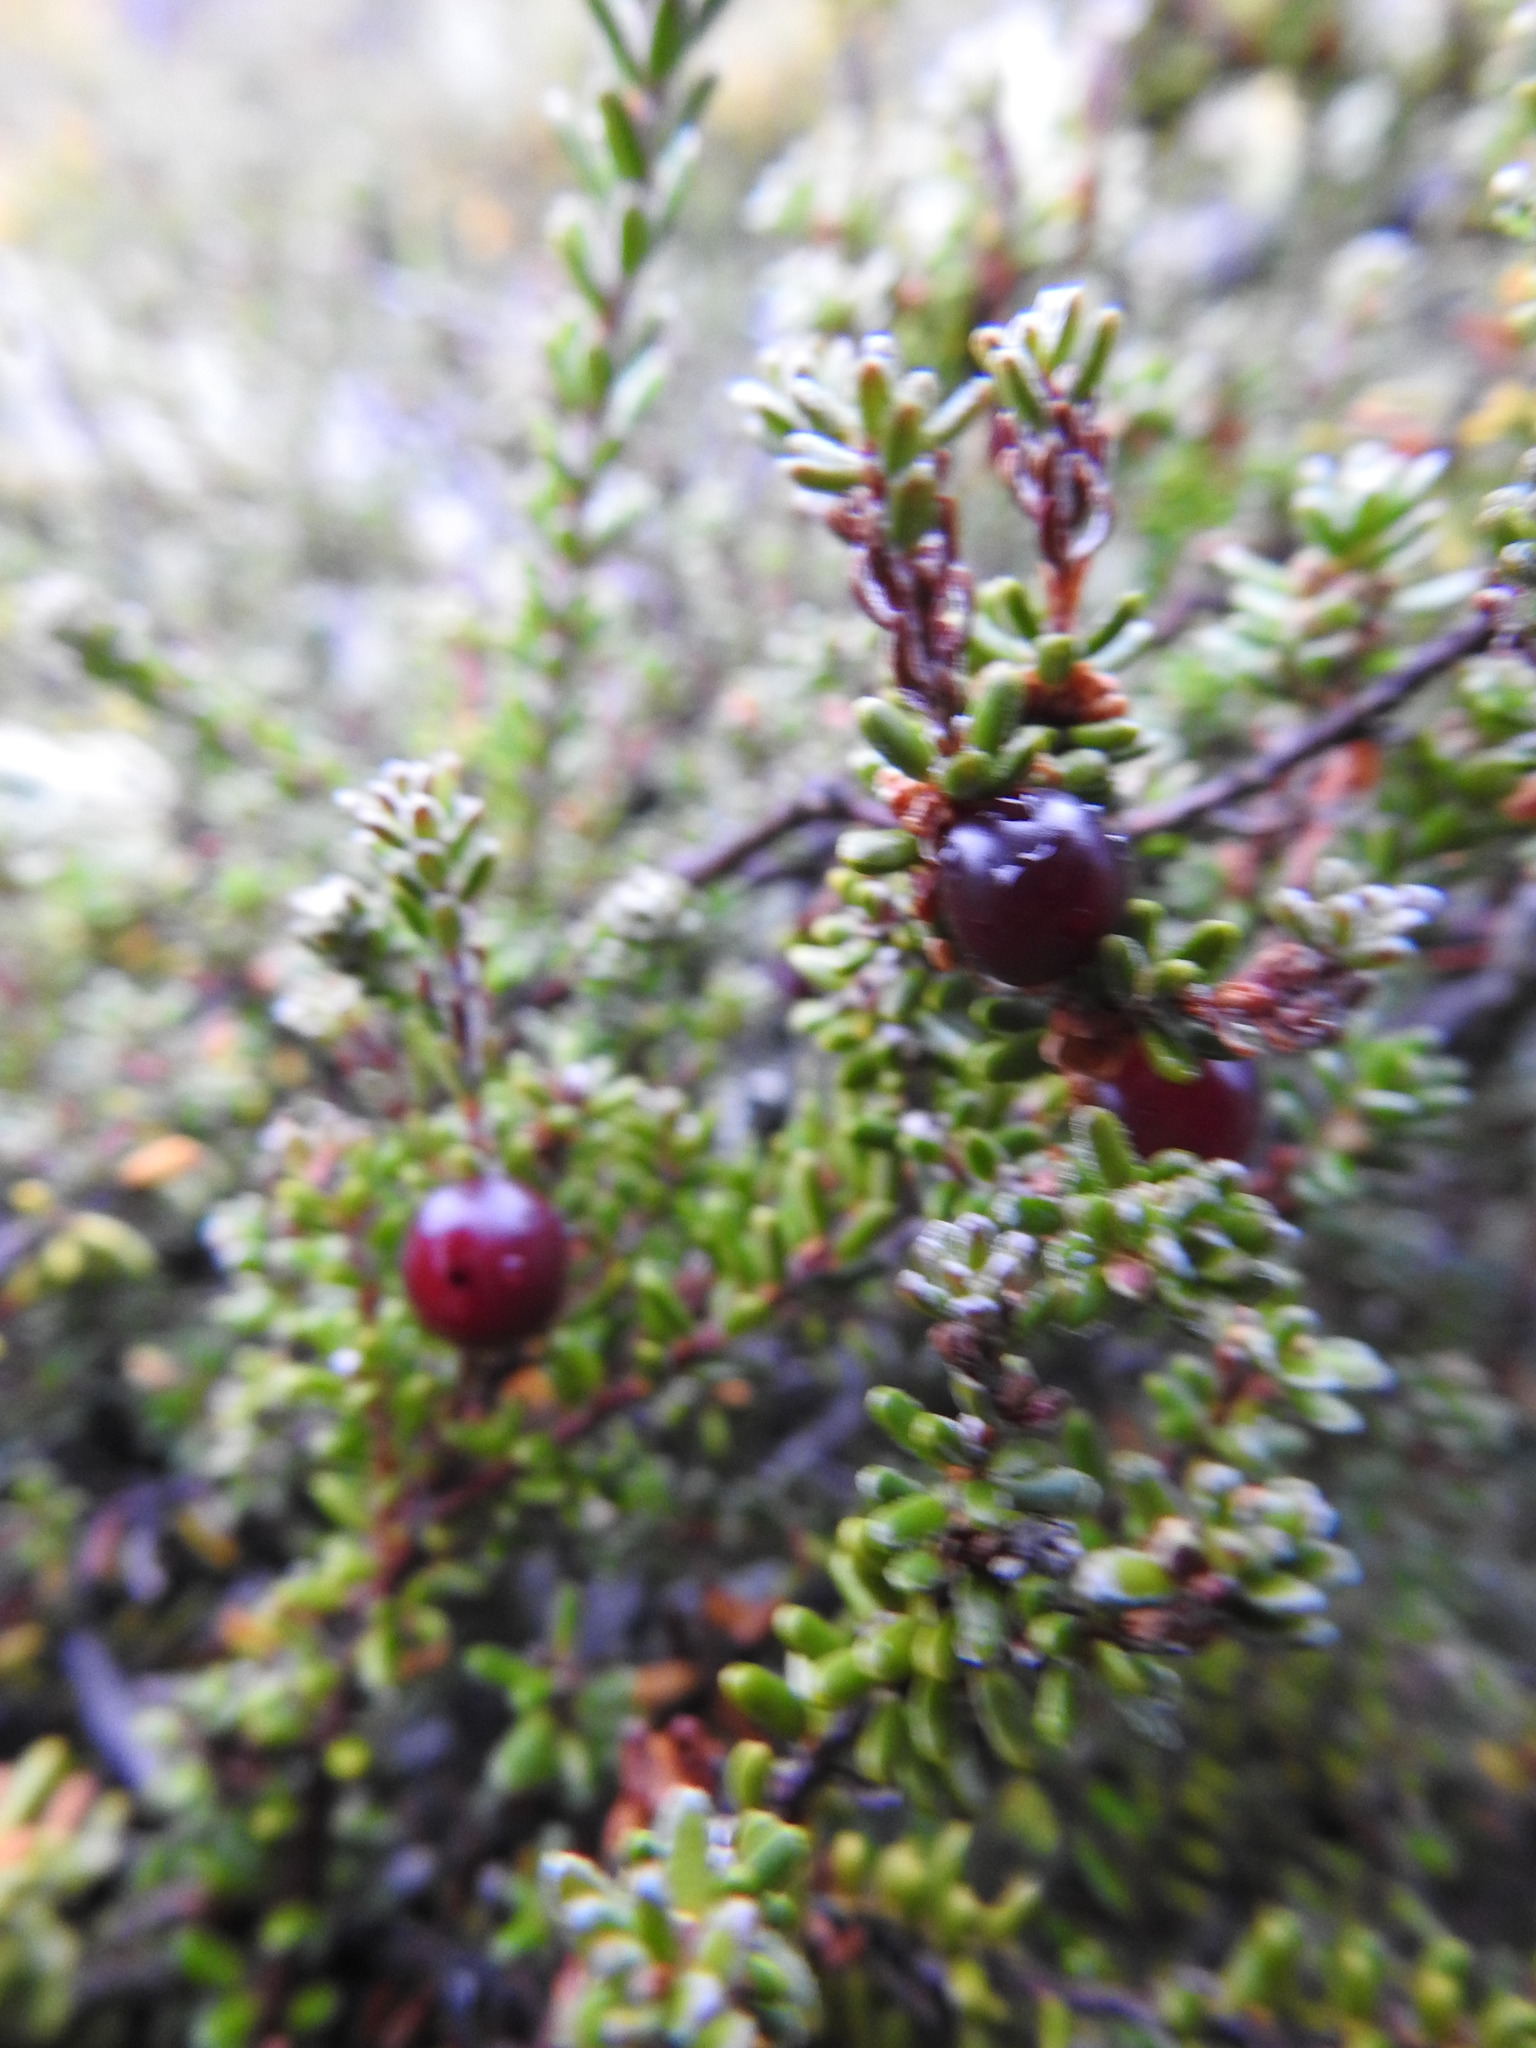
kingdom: Plantae
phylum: Tracheophyta
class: Magnoliopsida
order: Ericales
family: Ericaceae
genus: Empetrum
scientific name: Empetrum rubrum
